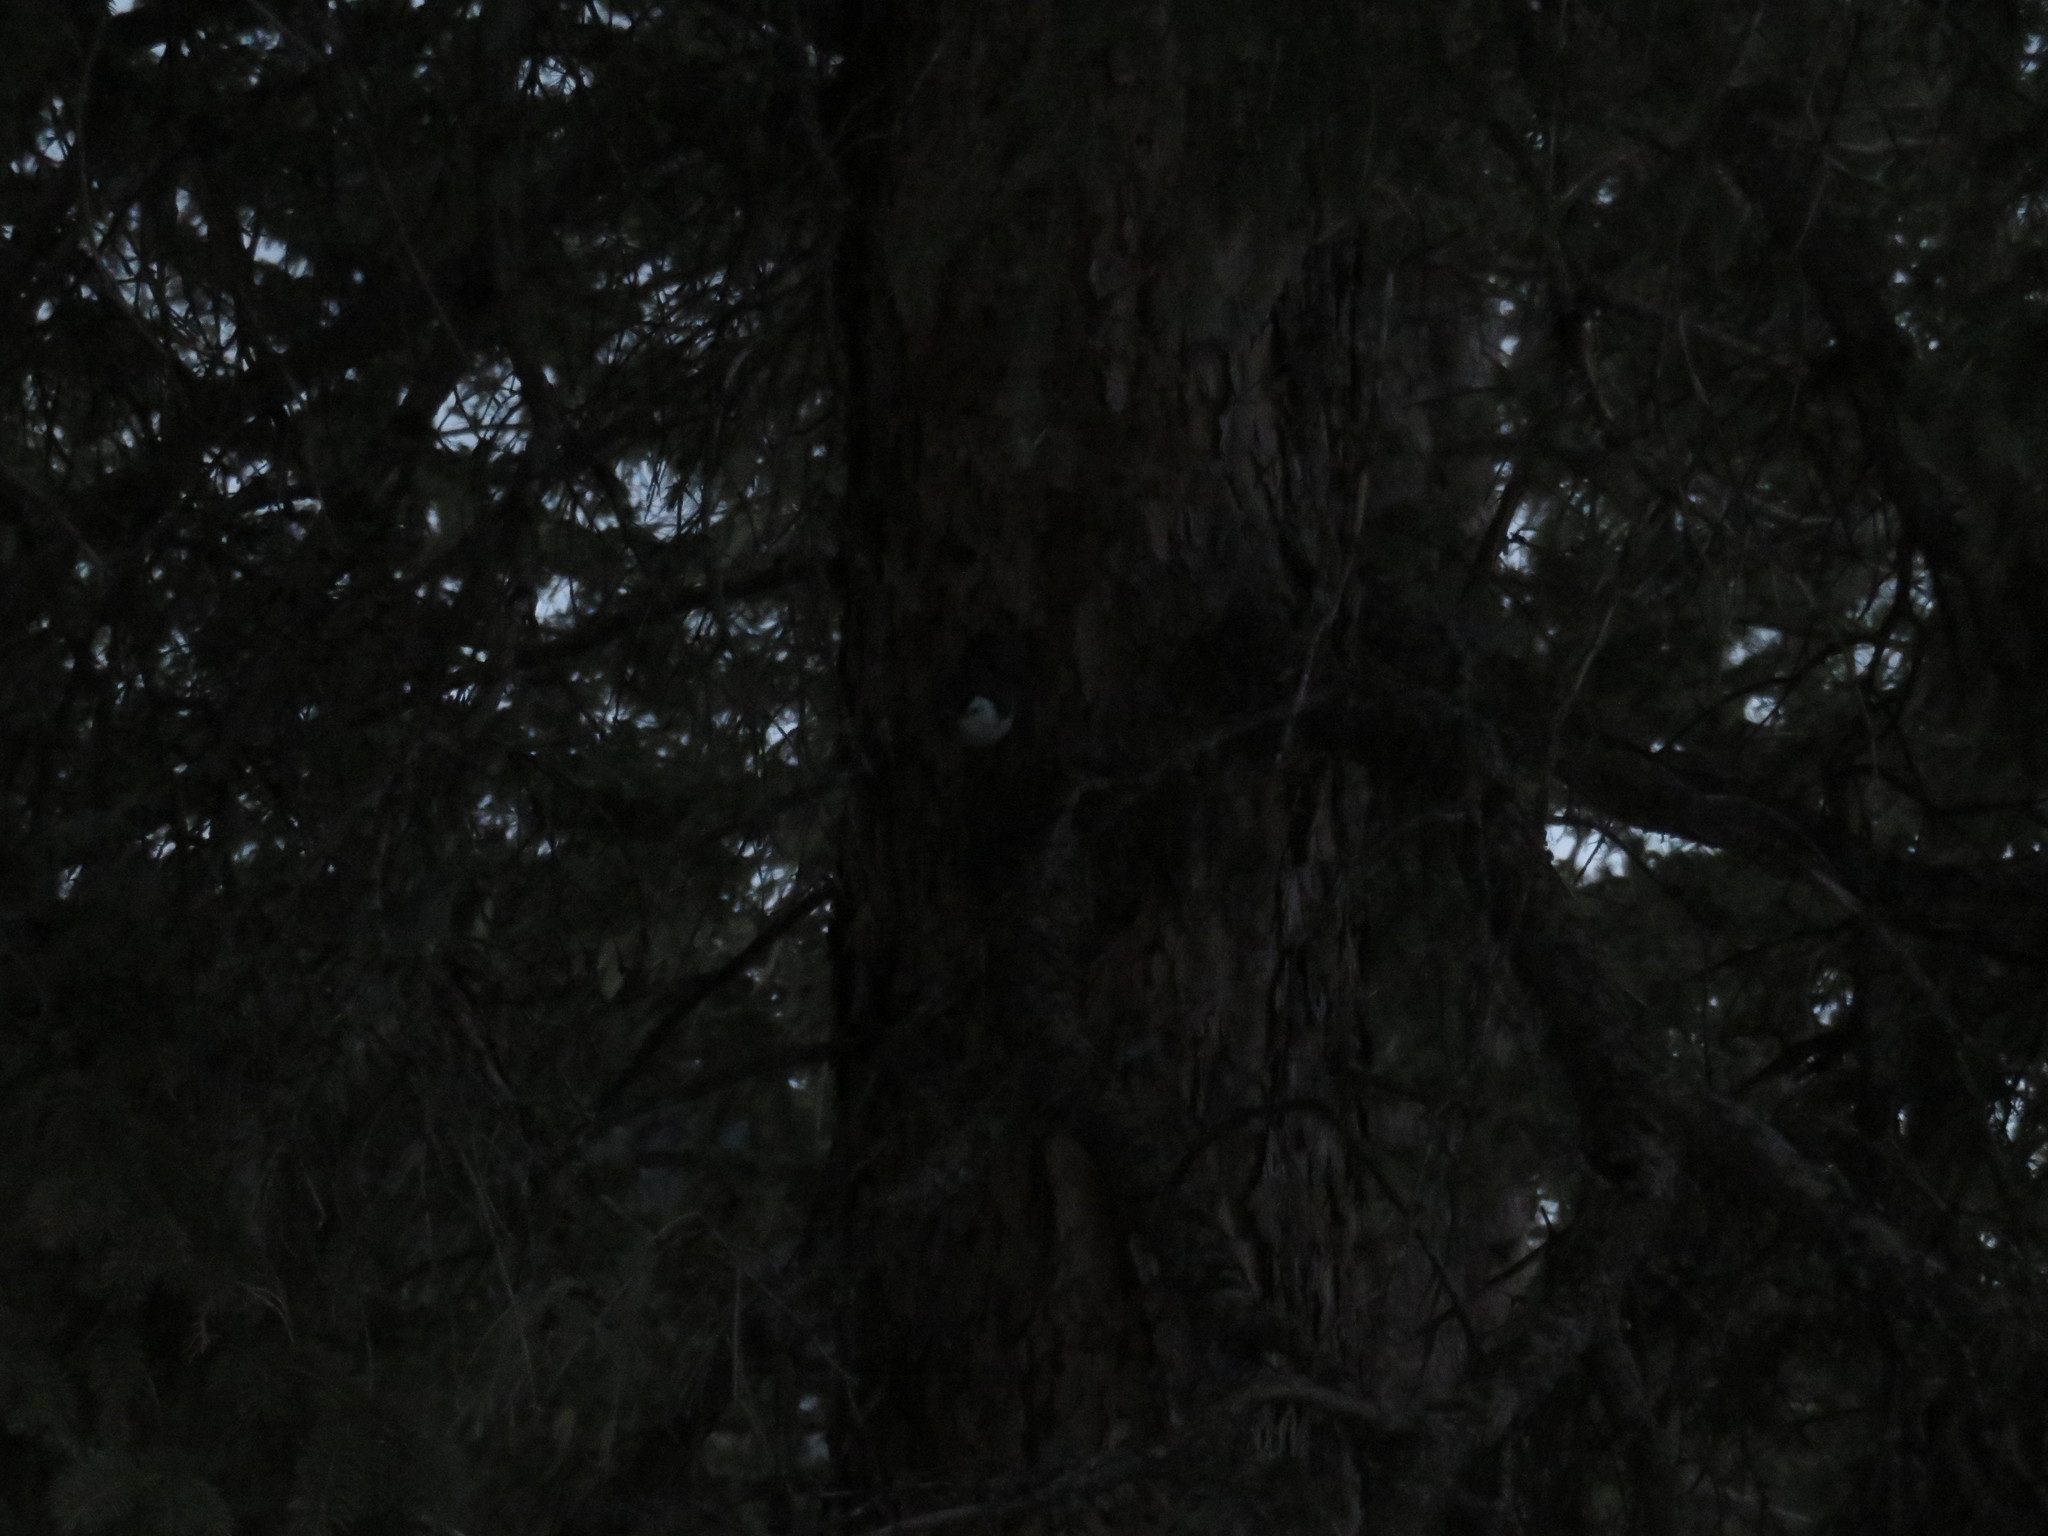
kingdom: Animalia
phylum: Chordata
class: Aves
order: Passeriformes
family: Sittidae
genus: Sitta
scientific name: Sitta carolinensis
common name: White-breasted nuthatch
